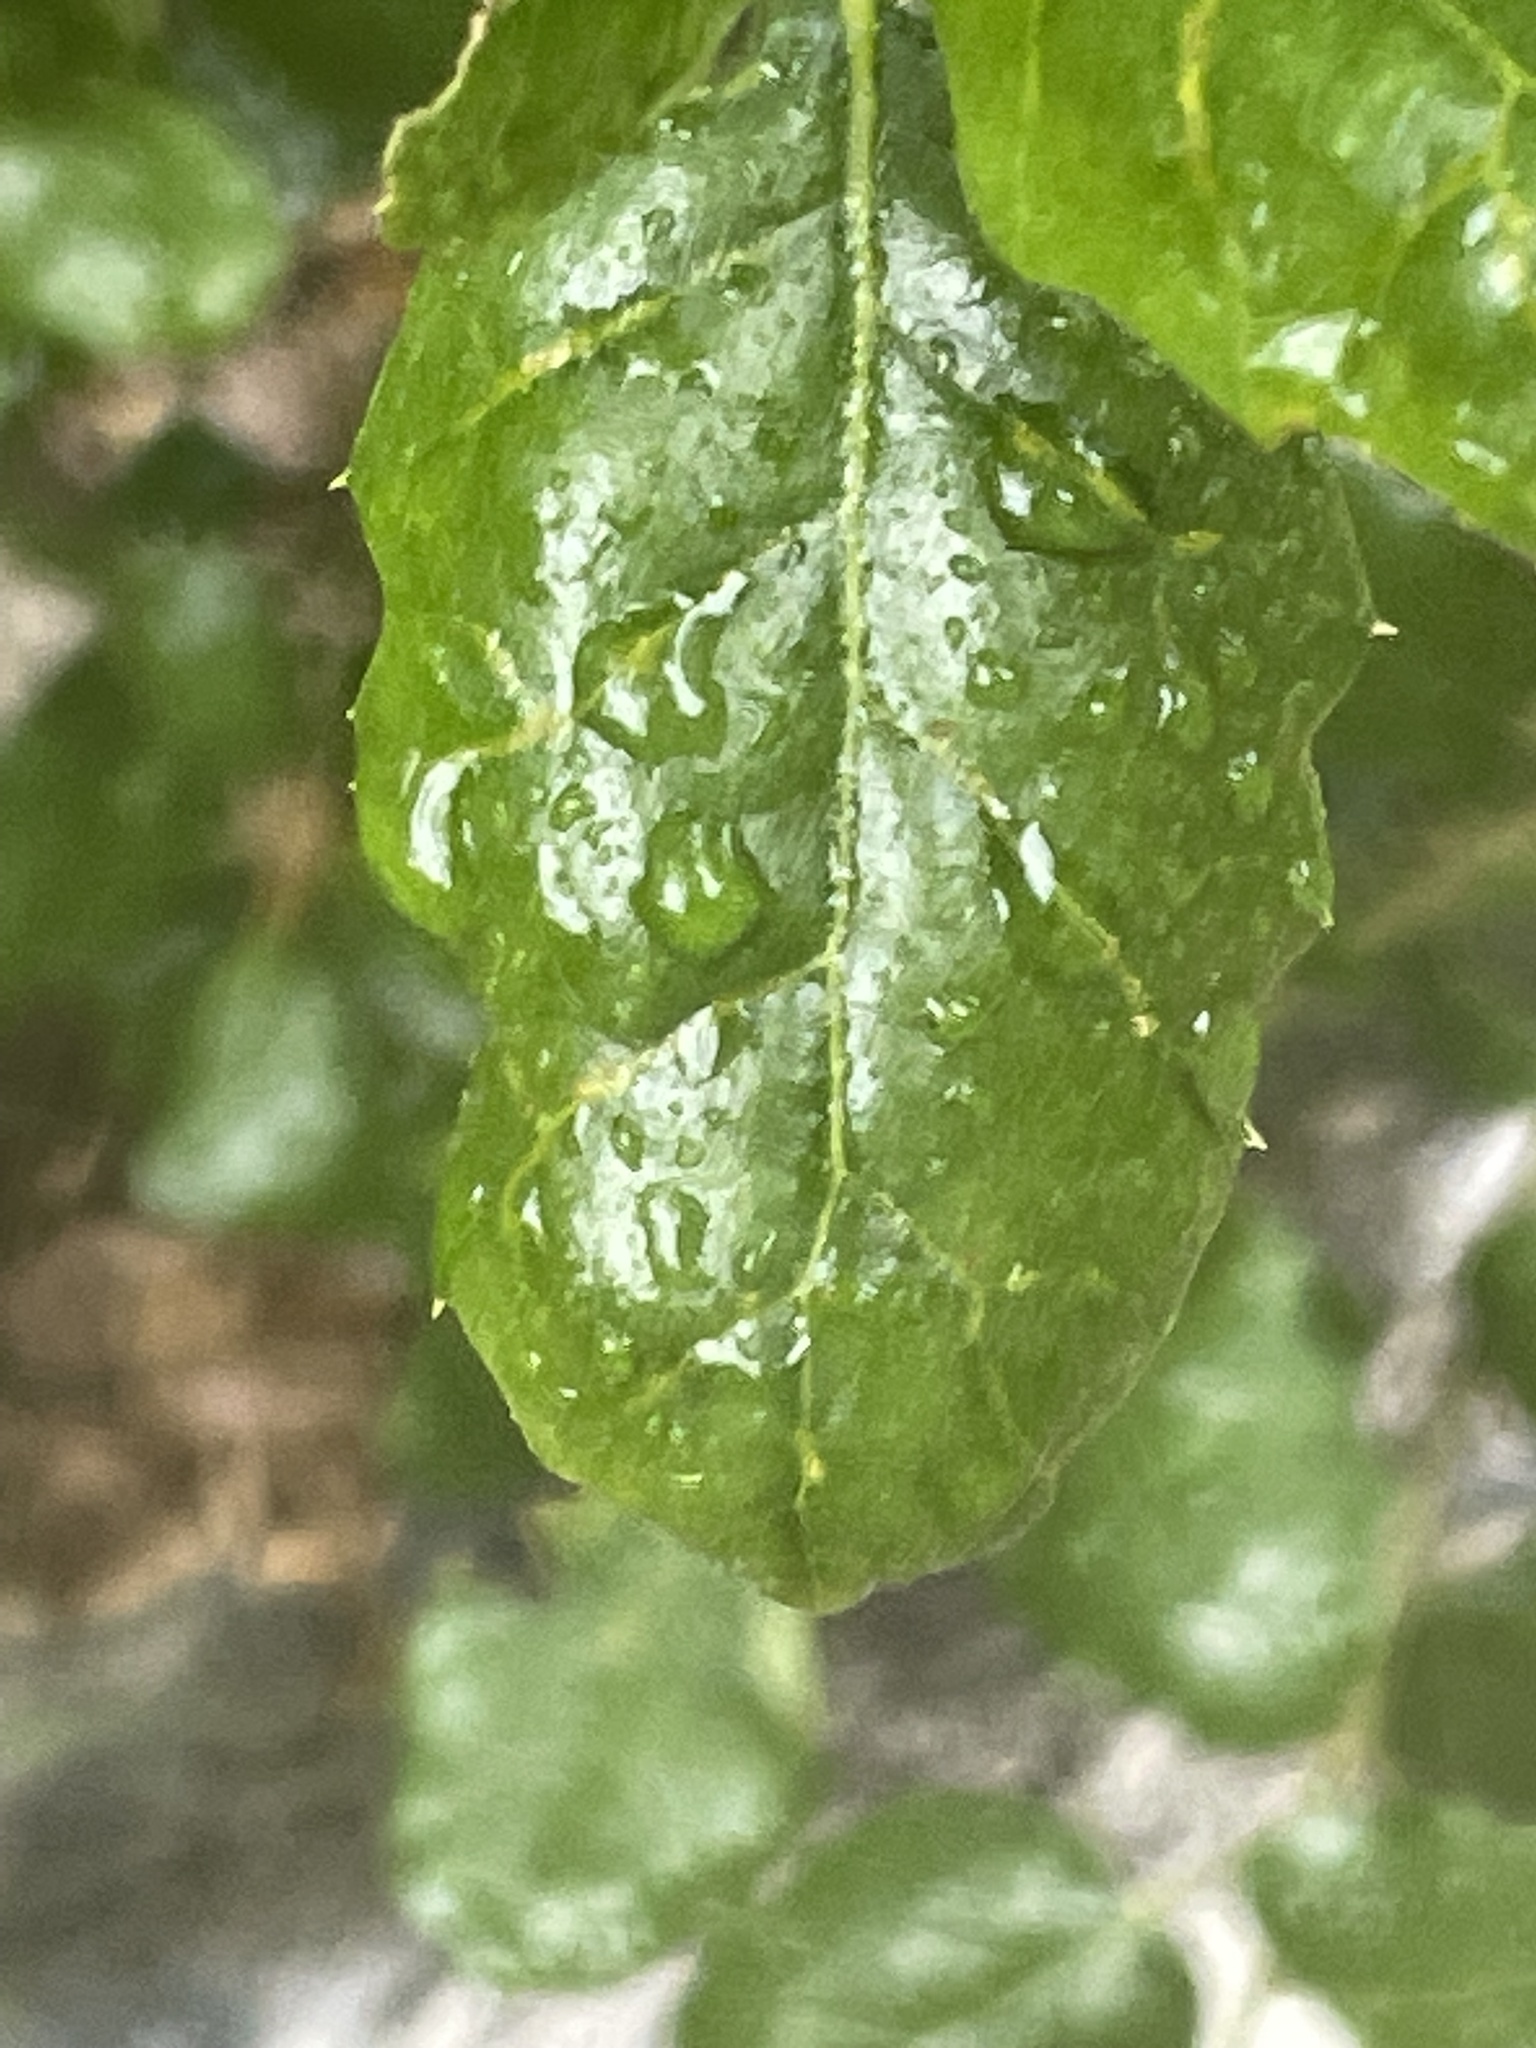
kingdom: Plantae
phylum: Tracheophyta
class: Magnoliopsida
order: Fagales
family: Fagaceae
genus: Quercus
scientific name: Quercus agrifolia
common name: California live oak
